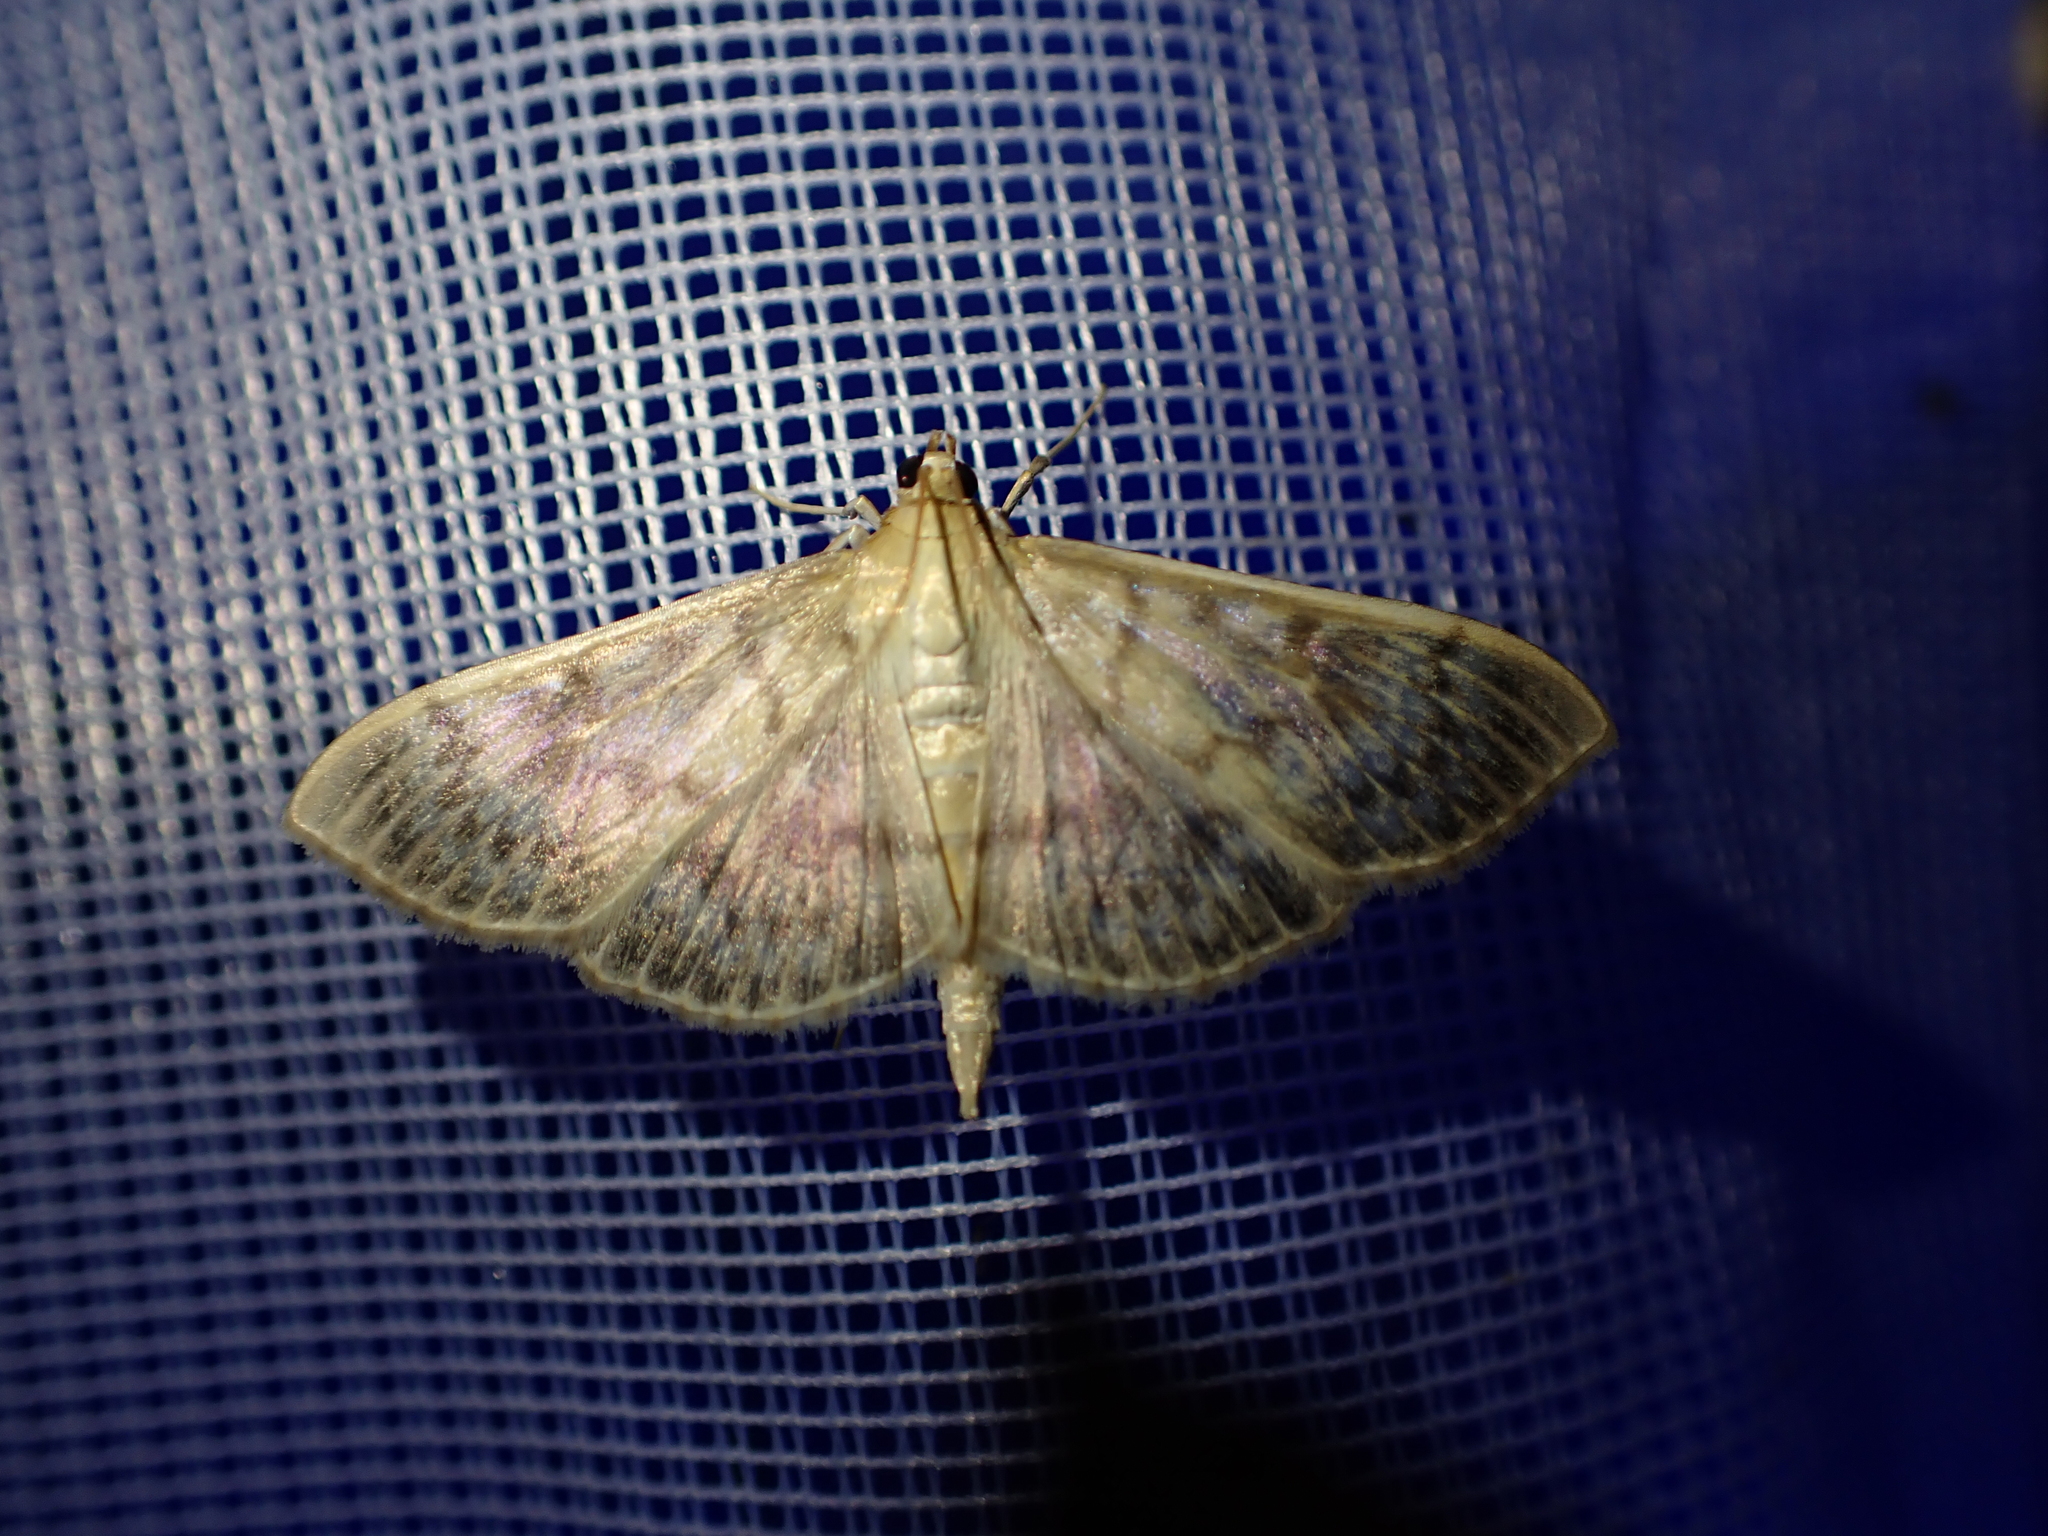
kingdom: Animalia
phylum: Arthropoda
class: Insecta
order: Lepidoptera
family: Crambidae
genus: Patania
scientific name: Patania ruralis
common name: Mother of pearl
